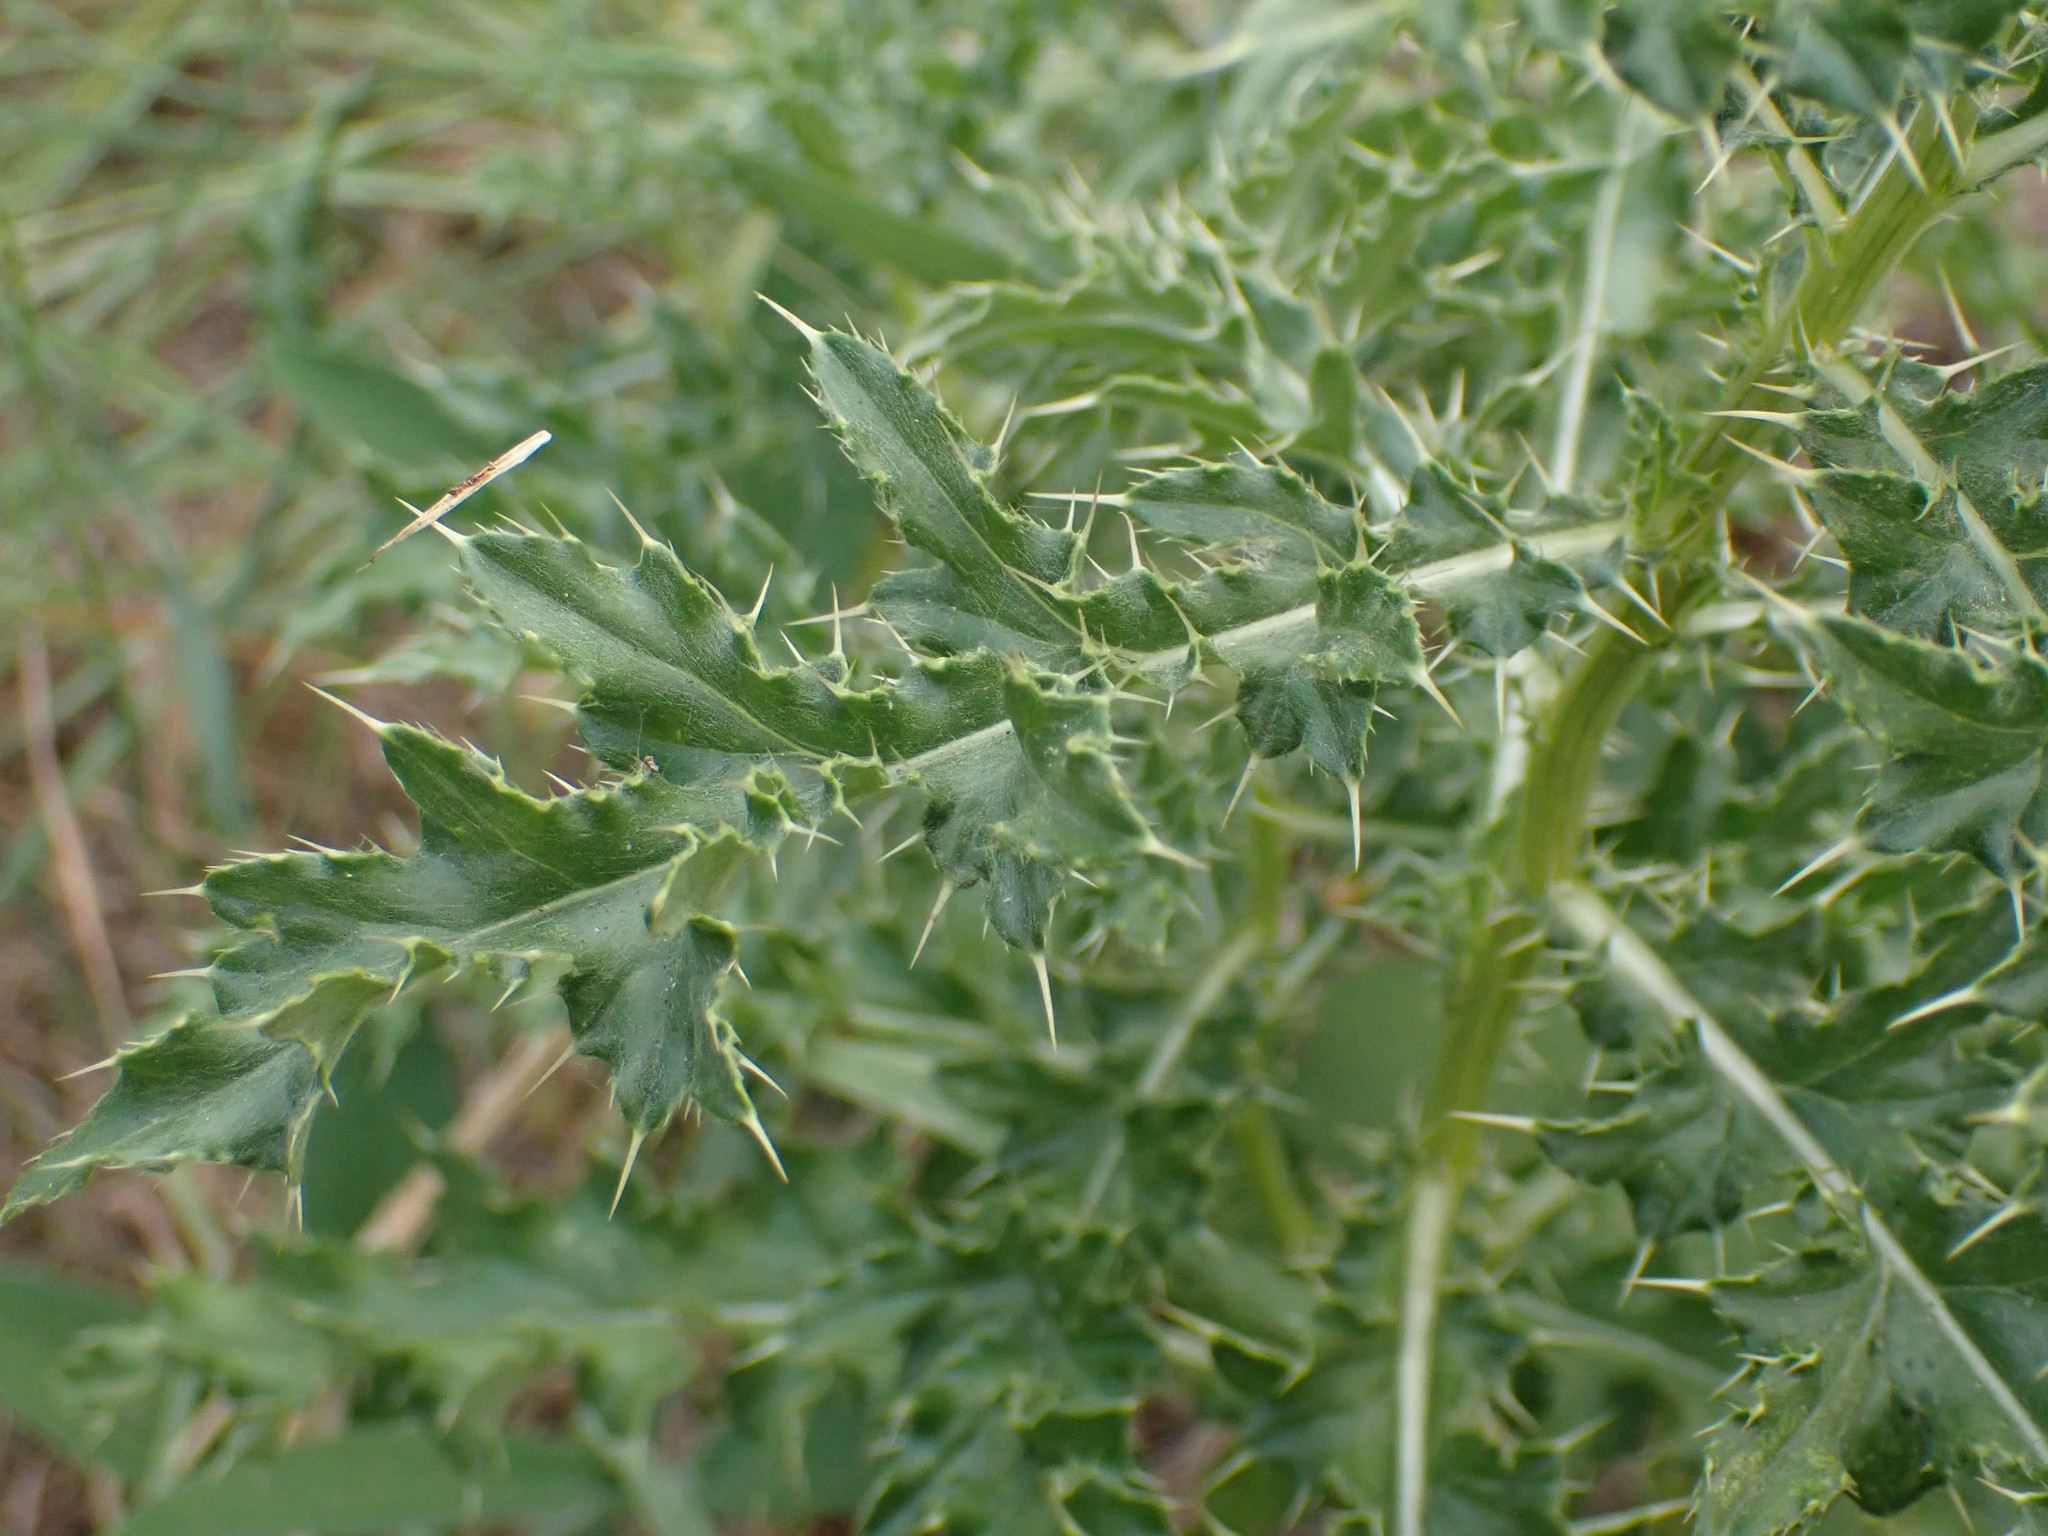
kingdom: Plantae
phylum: Tracheophyta
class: Magnoliopsida
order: Asterales
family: Asteraceae
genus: Cirsium
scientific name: Cirsium arvense
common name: Creeping thistle
